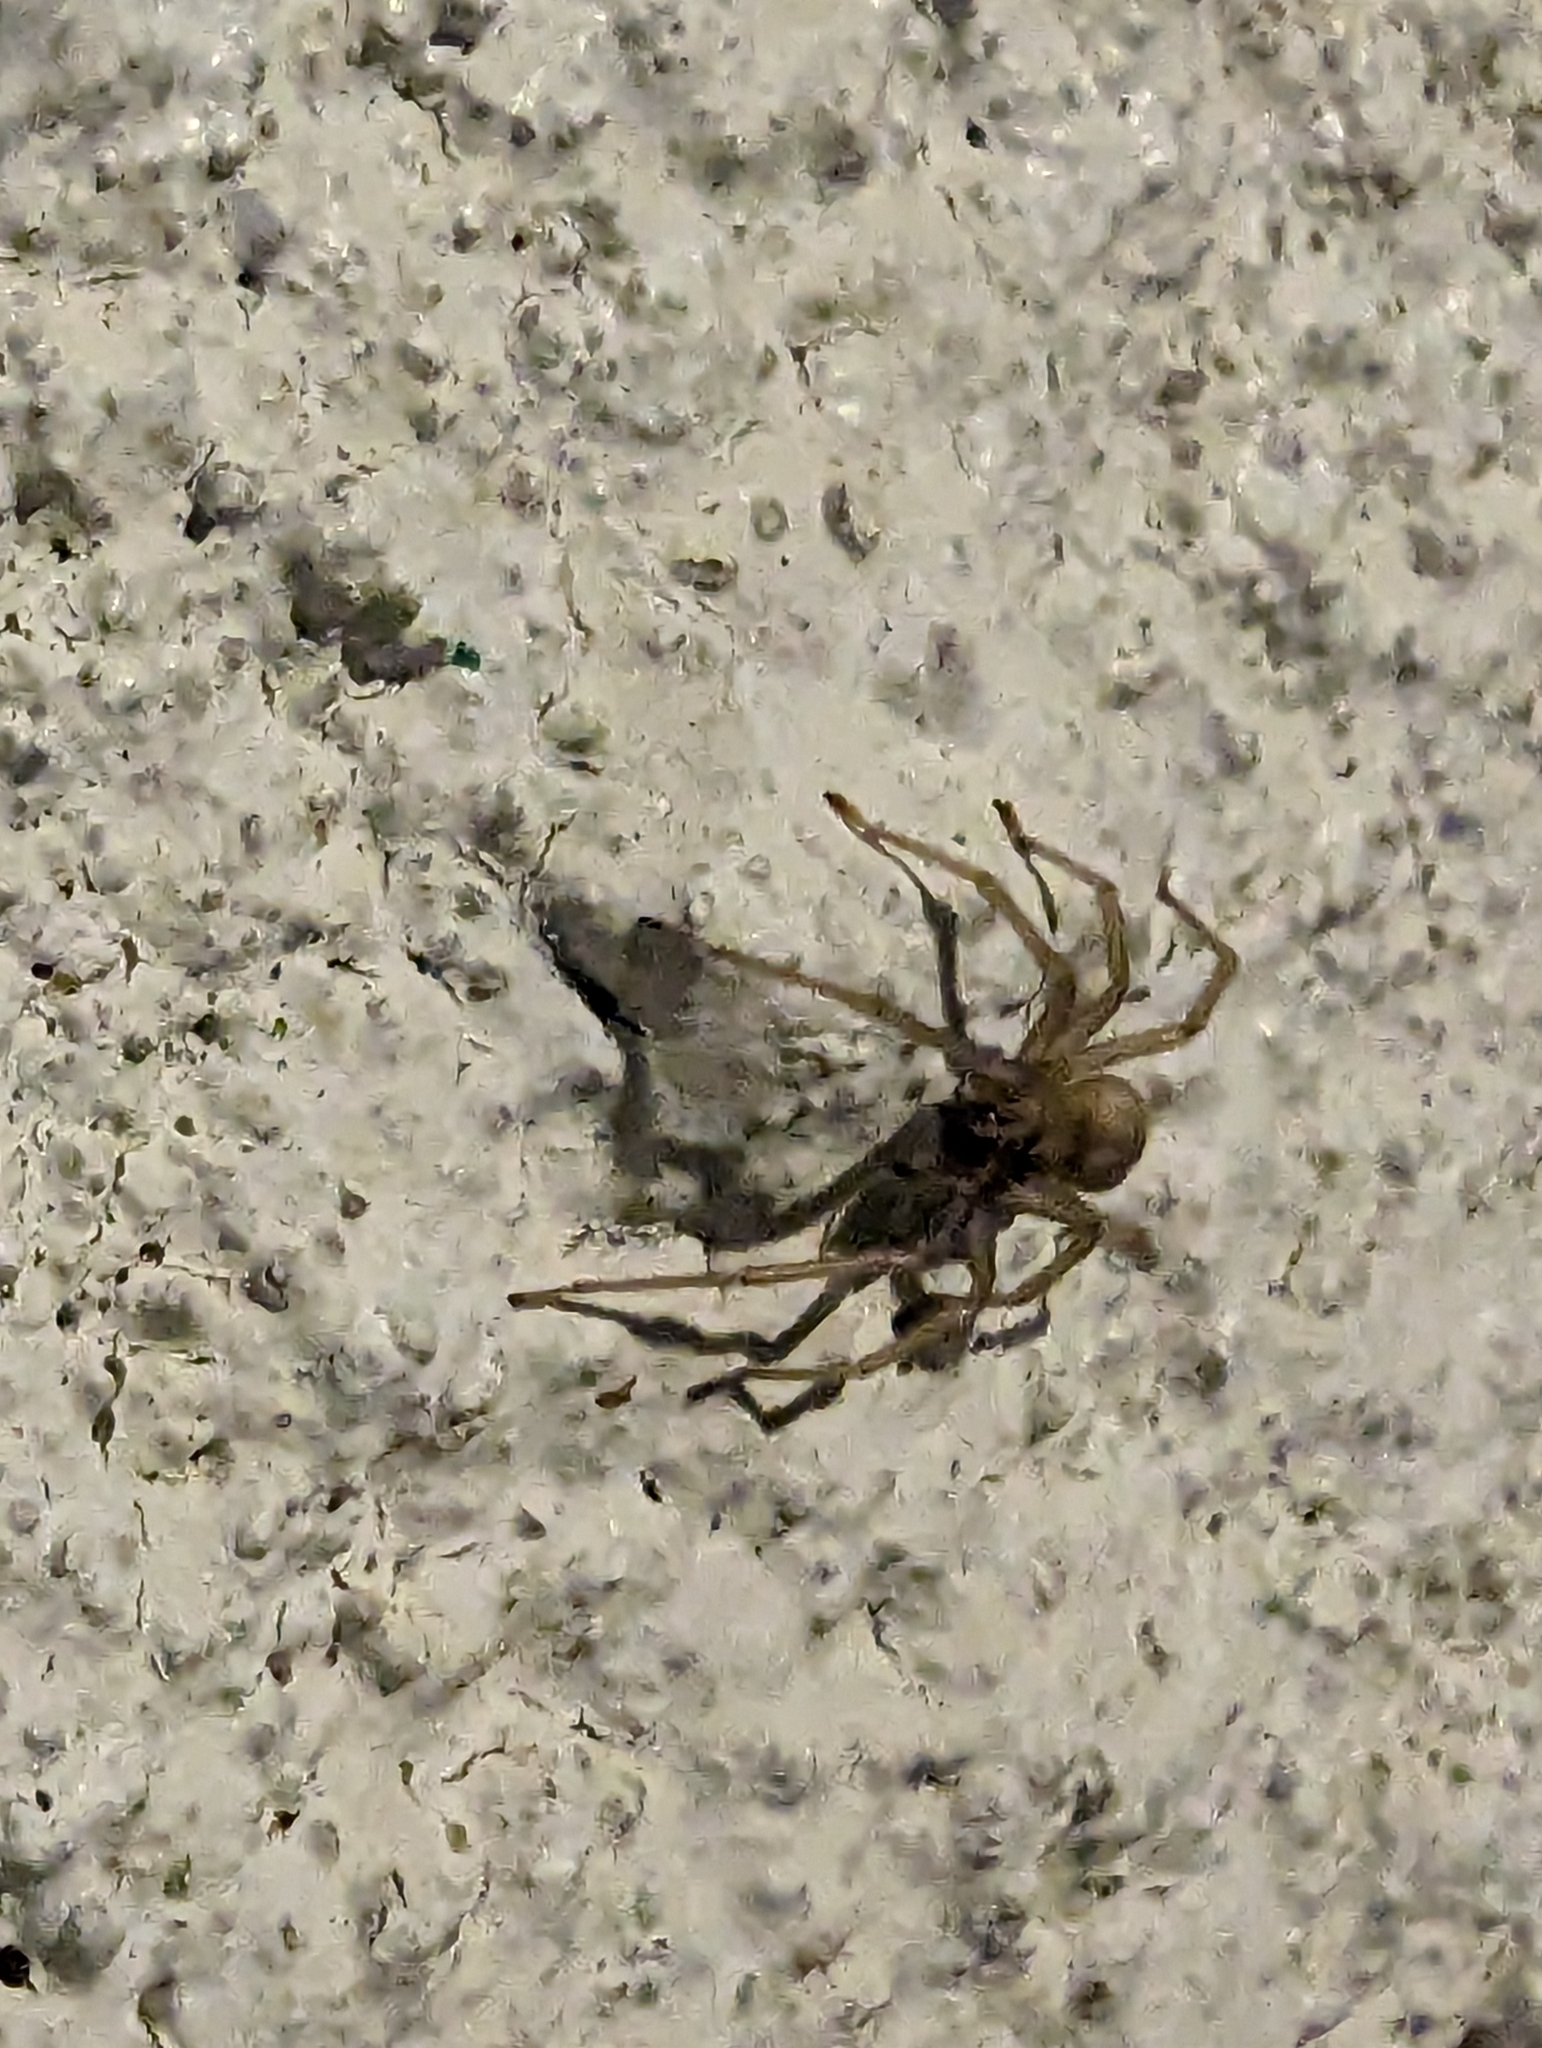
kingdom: Animalia
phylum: Arthropoda
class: Arachnida
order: Araneae
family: Cheiracanthiidae
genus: Cheiracanthium
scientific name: Cheiracanthium mildei
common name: Northern yellow sac spider
